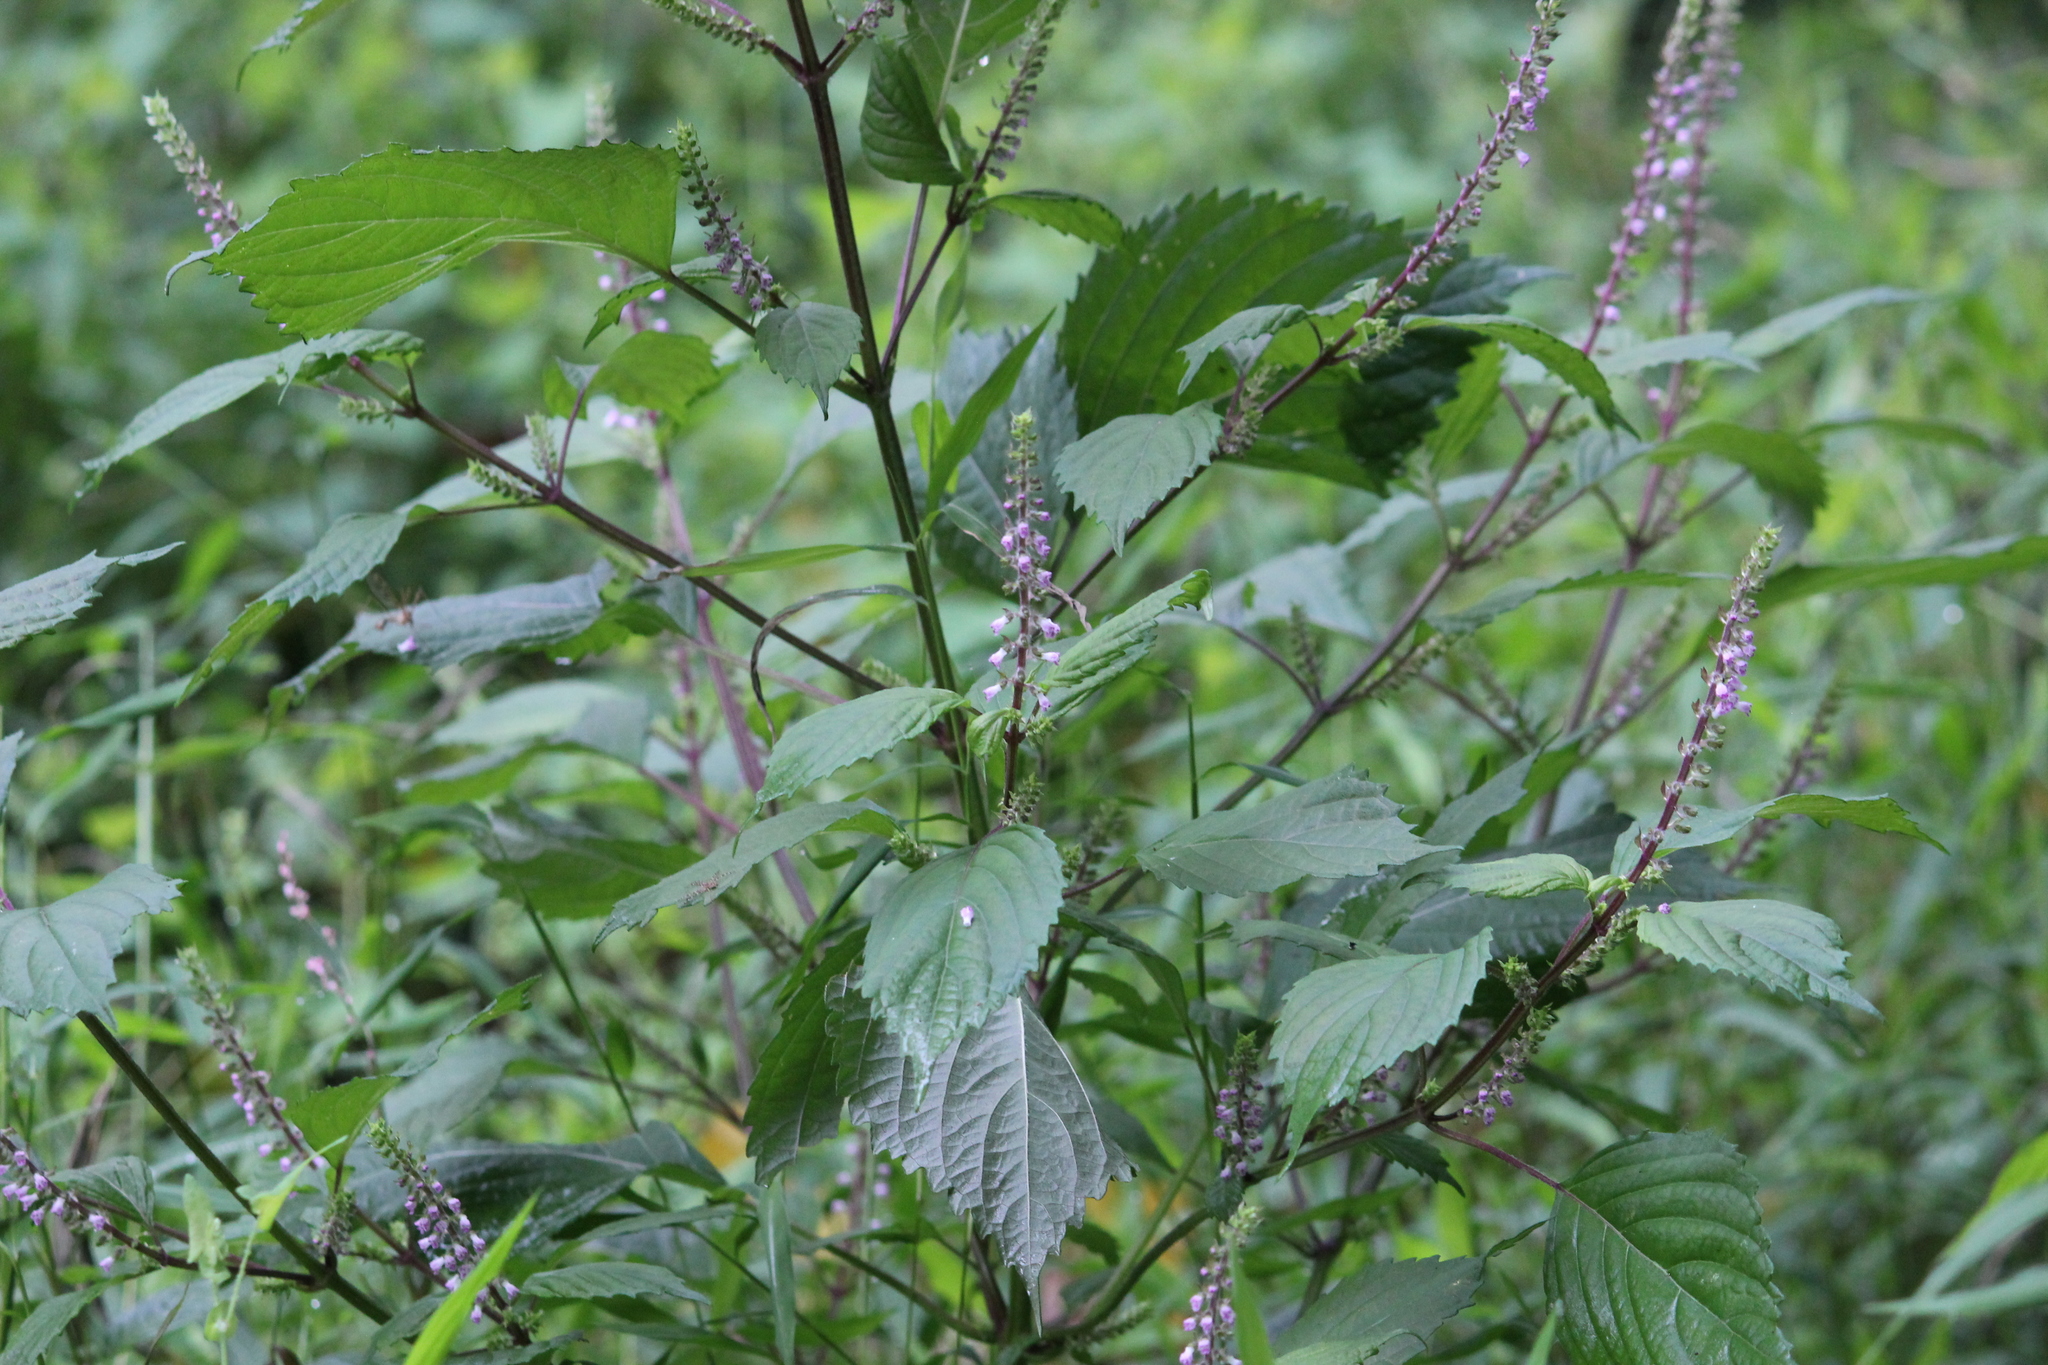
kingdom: Plantae
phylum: Tracheophyta
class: Magnoliopsida
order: Lamiales
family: Lamiaceae
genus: Perilla
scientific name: Perilla frutescens
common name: Perilla
